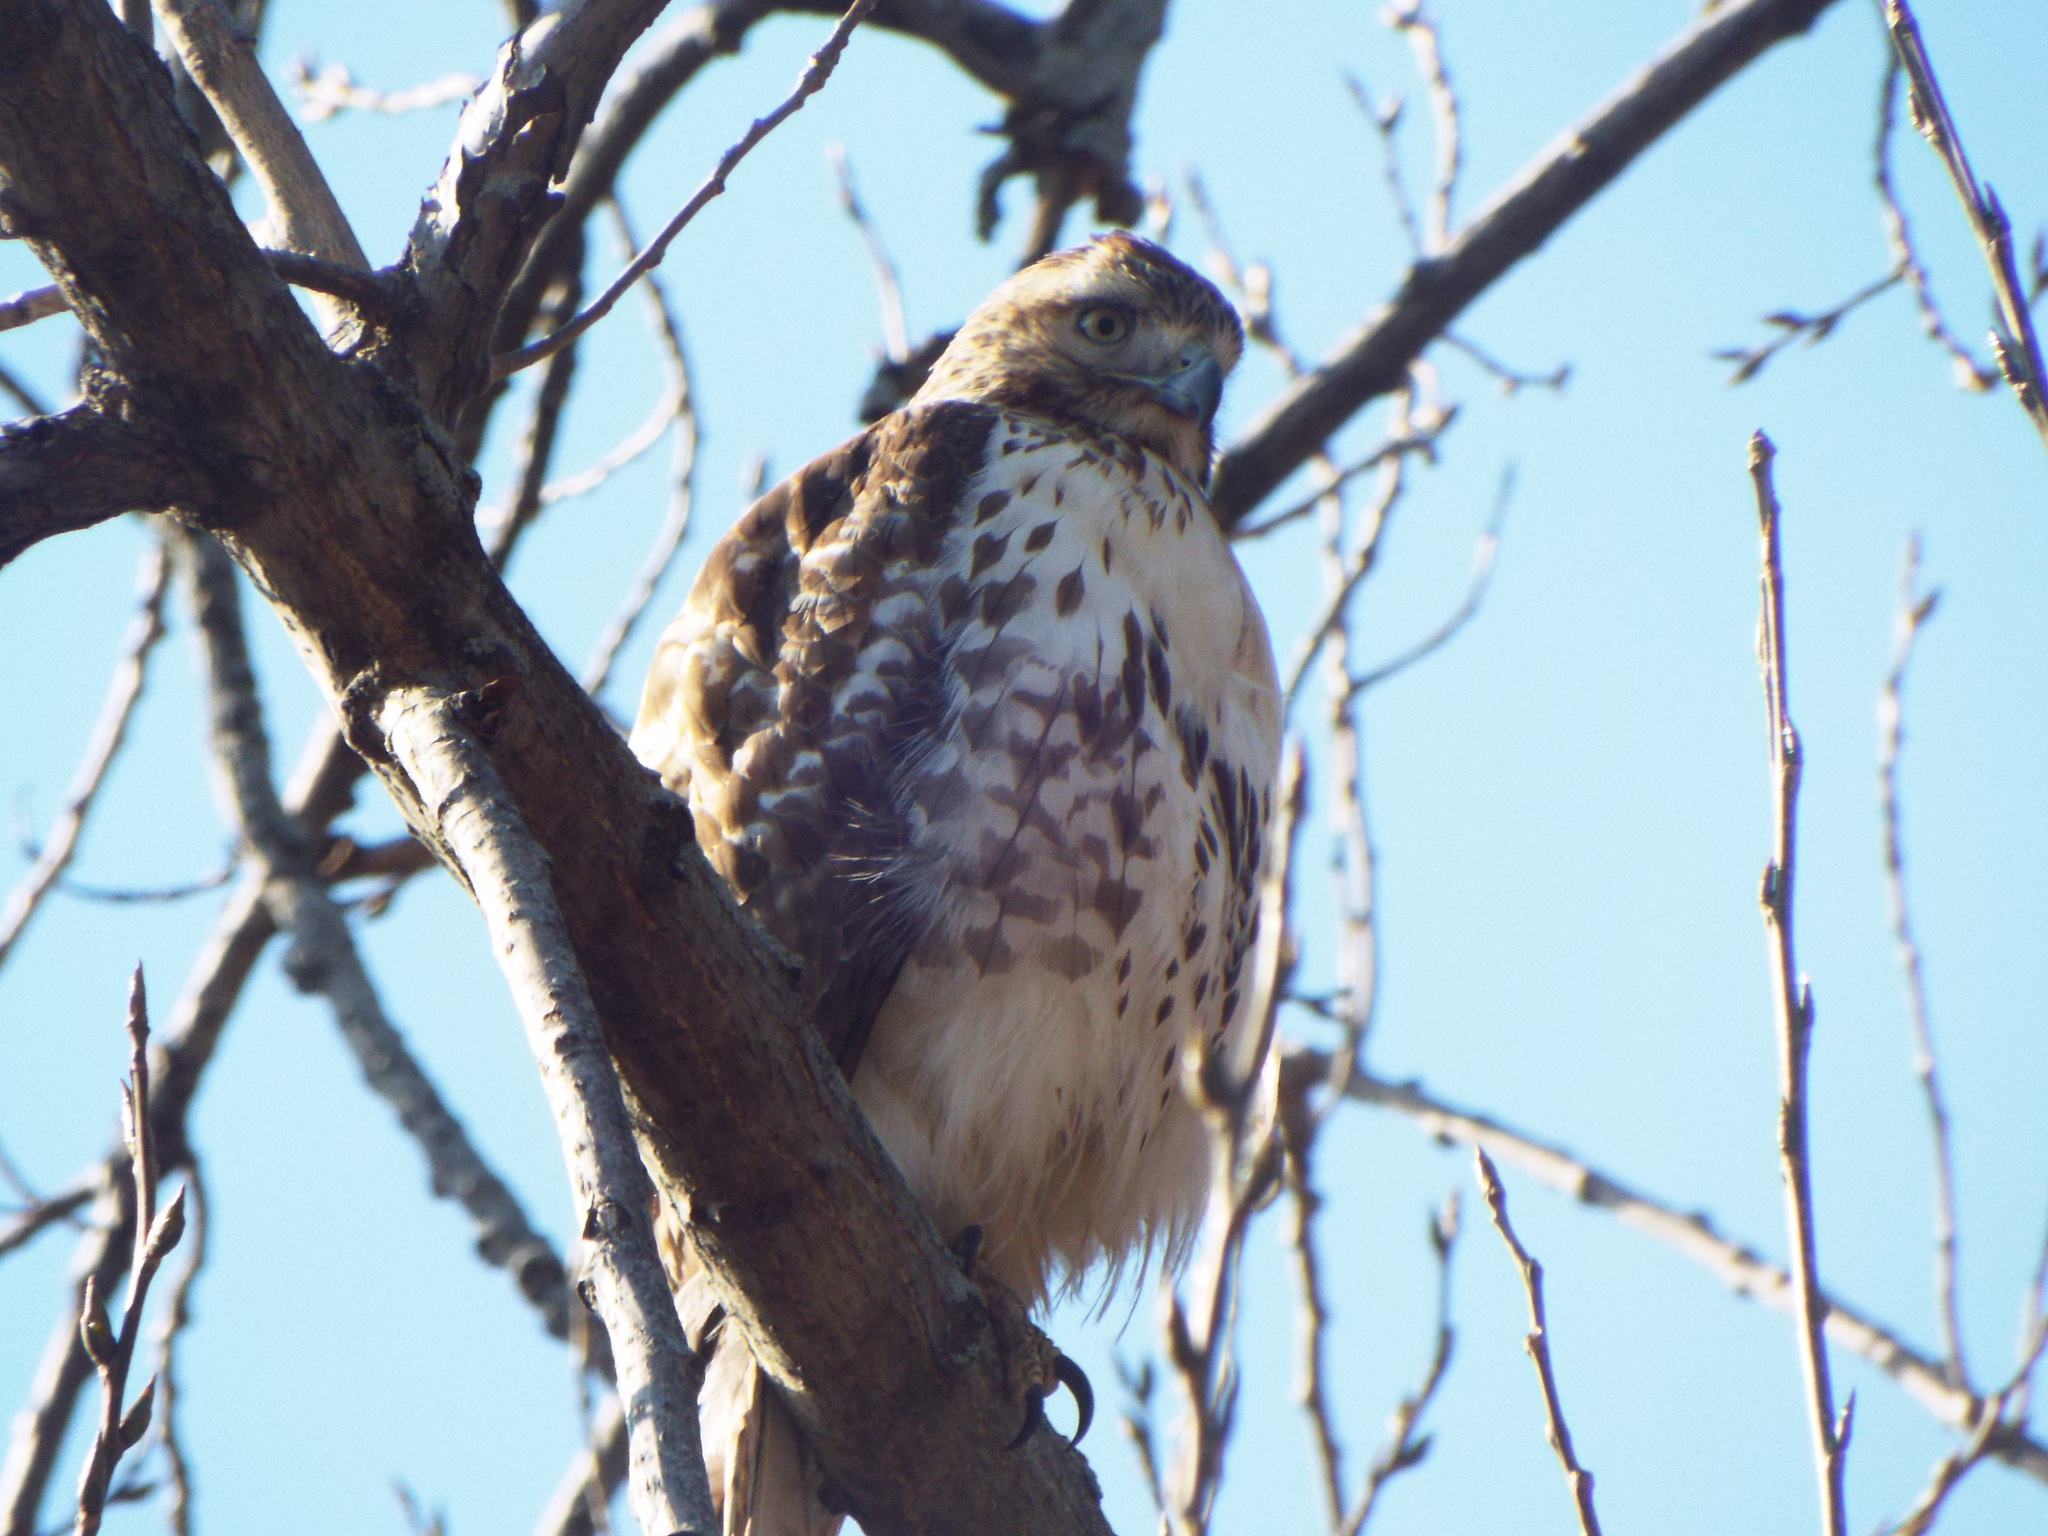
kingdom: Animalia
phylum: Chordata
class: Aves
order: Accipitriformes
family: Accipitridae
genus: Buteo
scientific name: Buteo jamaicensis
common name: Red-tailed hawk
